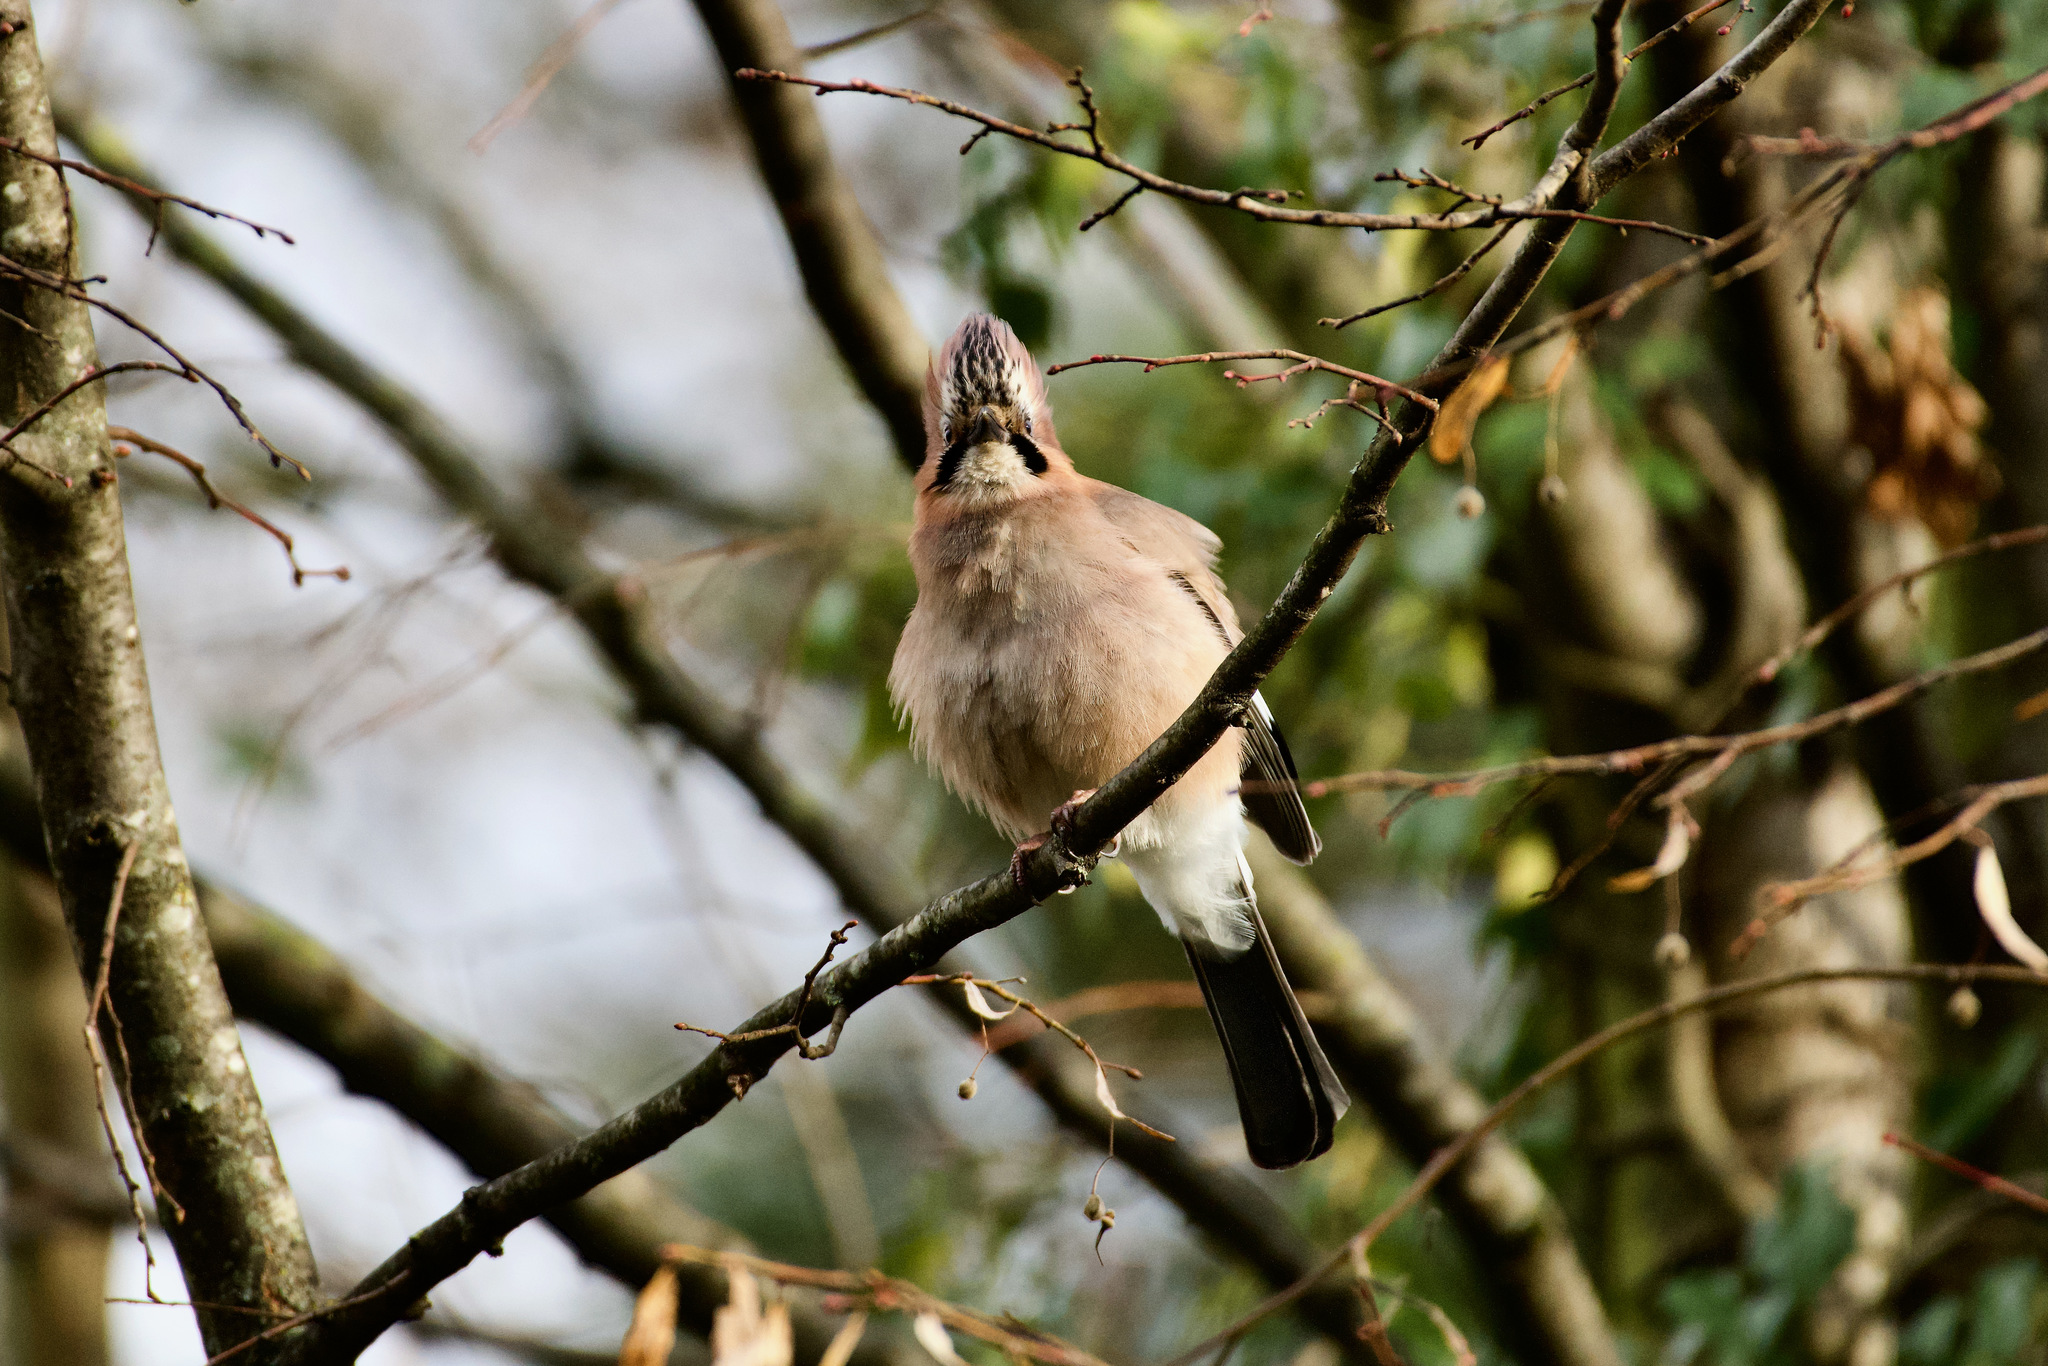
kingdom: Animalia
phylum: Chordata
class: Aves
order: Passeriformes
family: Corvidae
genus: Garrulus
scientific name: Garrulus glandarius
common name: Eurasian jay
